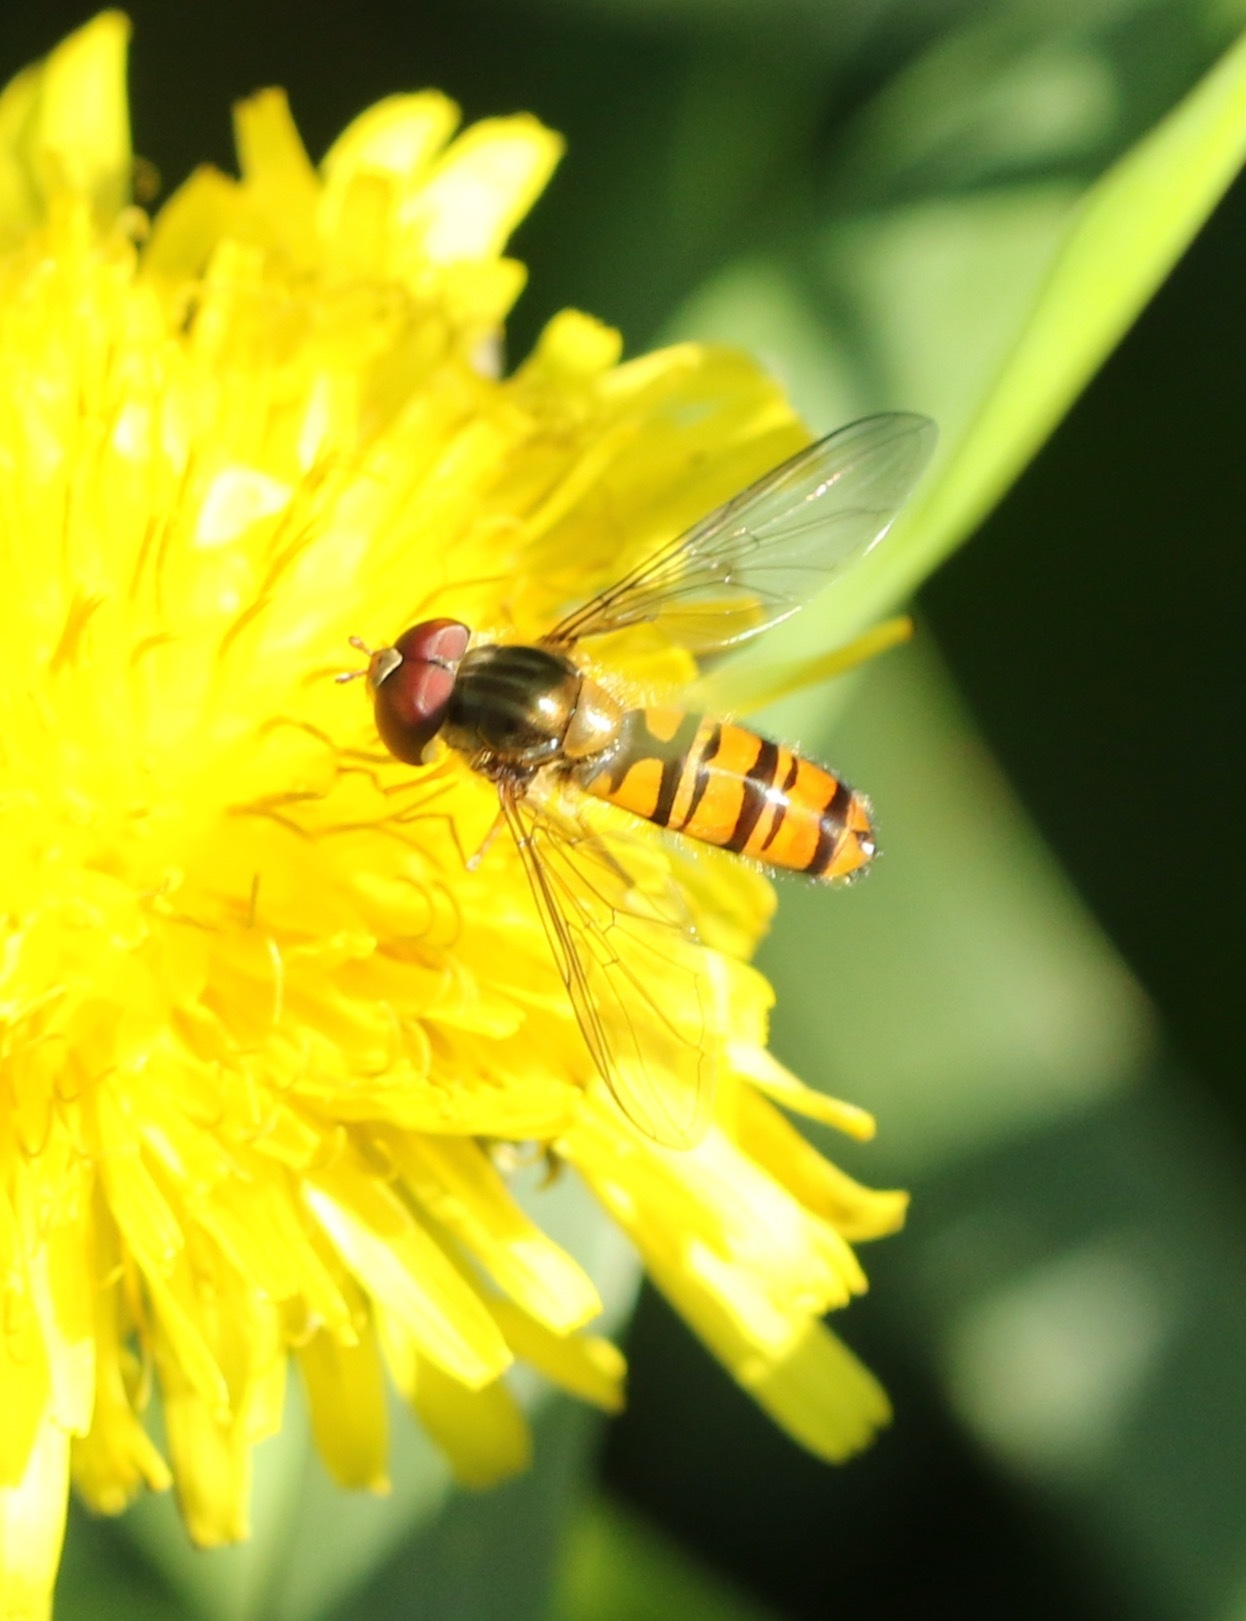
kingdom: Animalia
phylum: Arthropoda
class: Insecta
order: Diptera
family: Syrphidae
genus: Episyrphus
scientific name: Episyrphus balteatus
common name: Marmalade hoverfly
